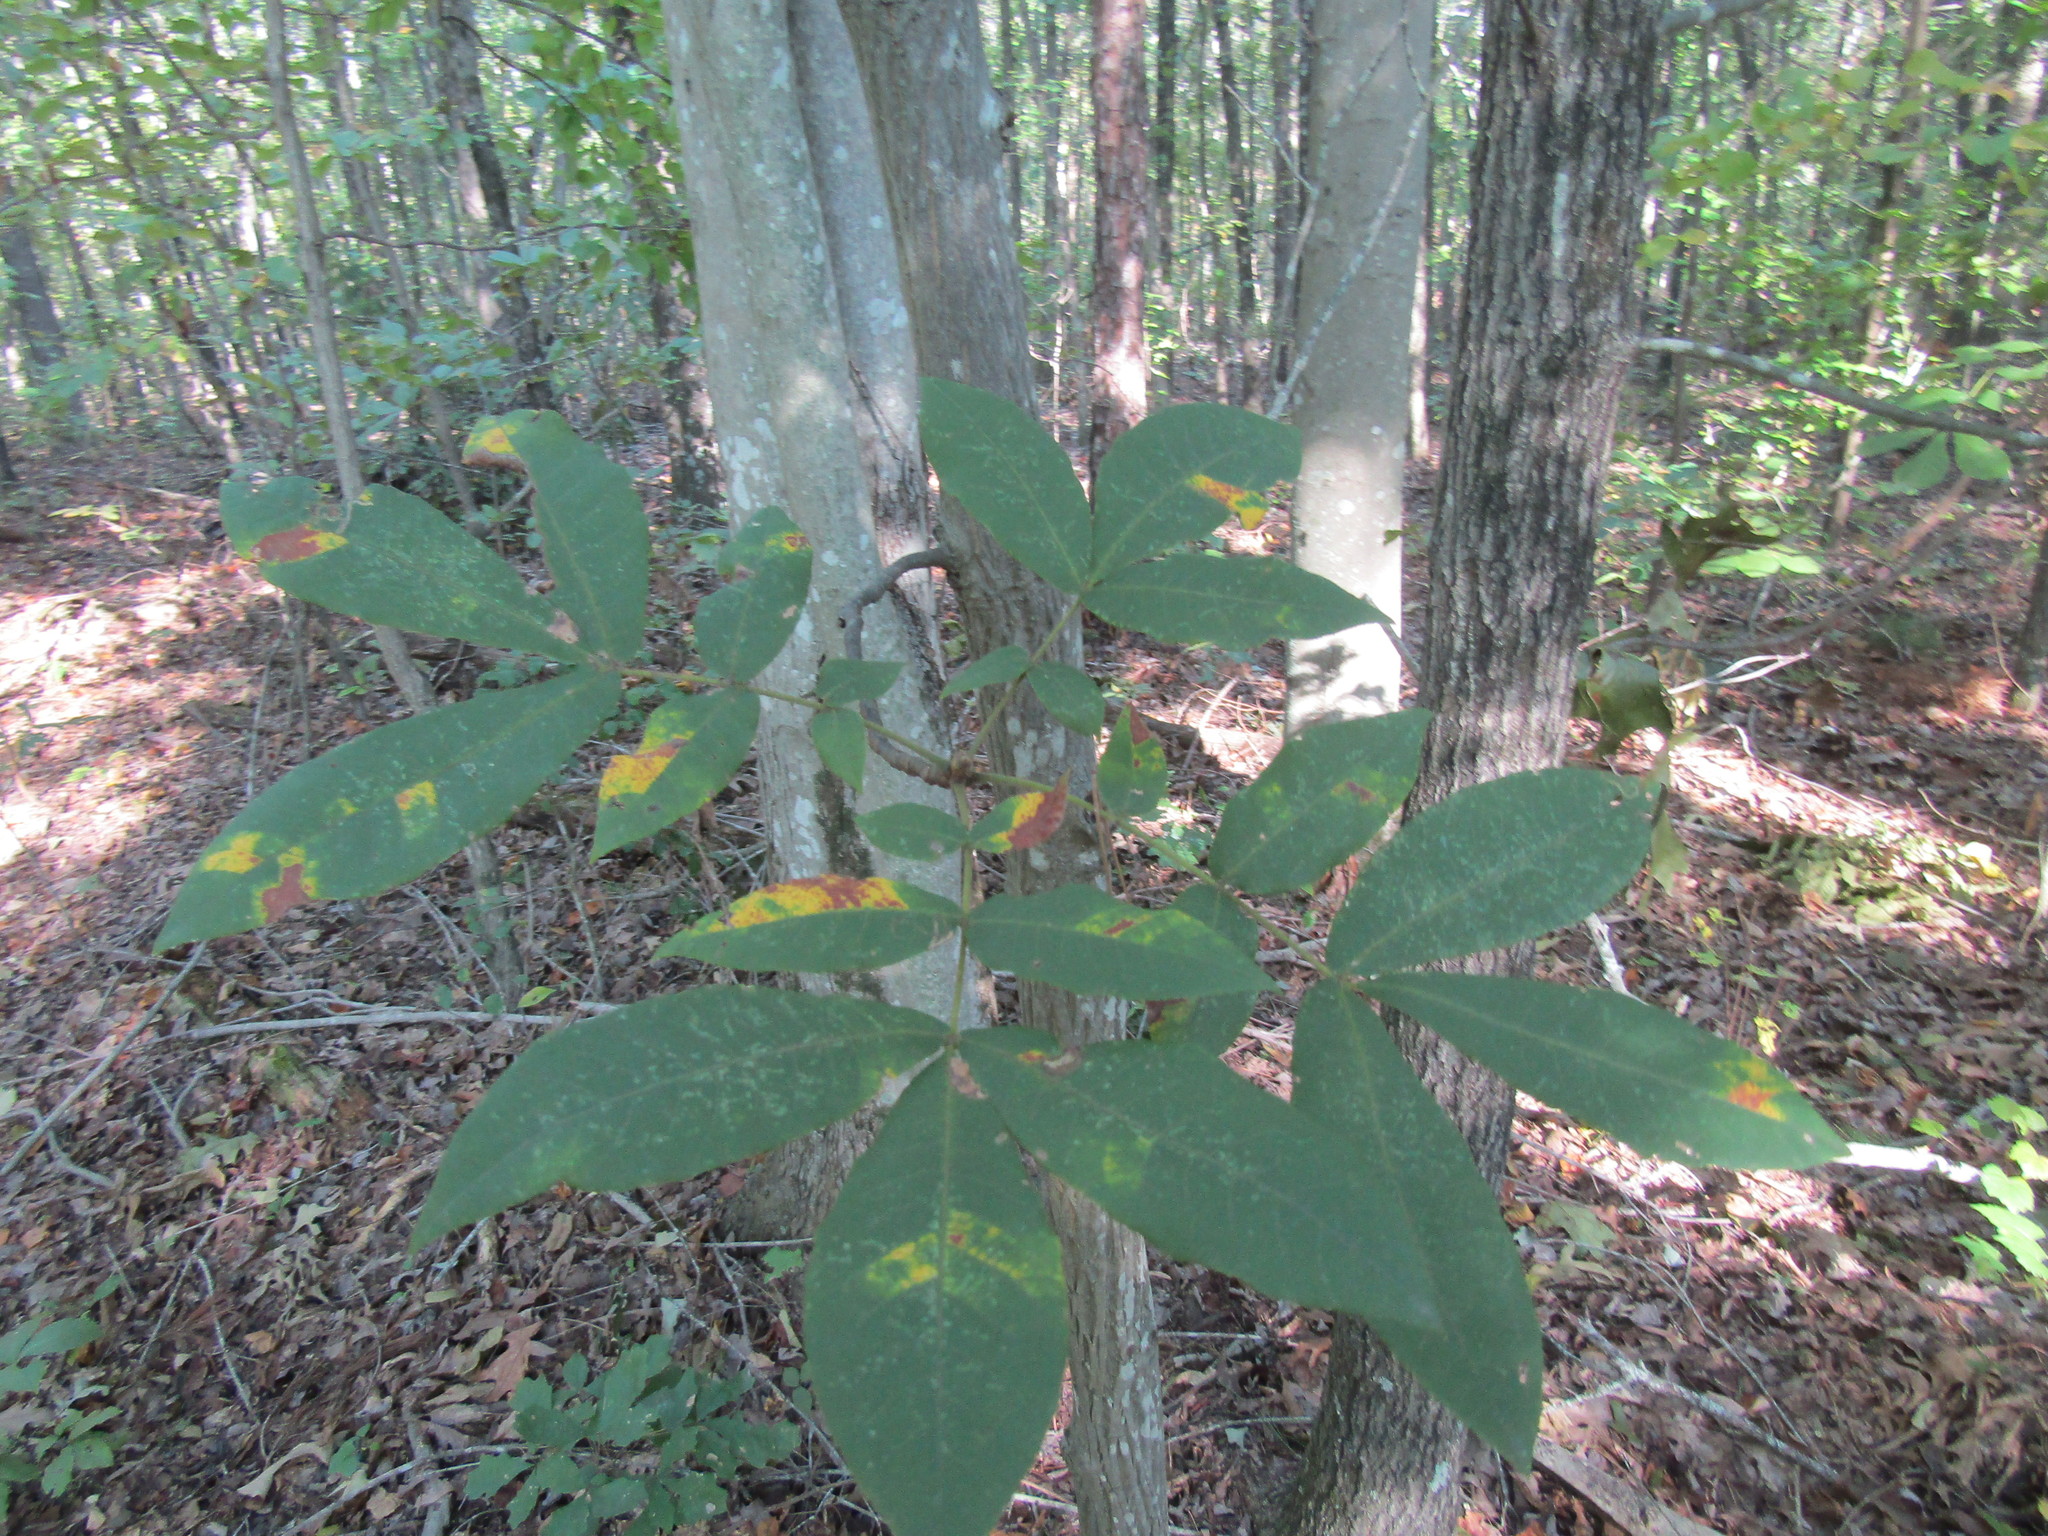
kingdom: Plantae
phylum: Tracheophyta
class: Magnoliopsida
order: Fagales
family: Juglandaceae
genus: Carya
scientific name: Carya alba
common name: Mockernut hickory
